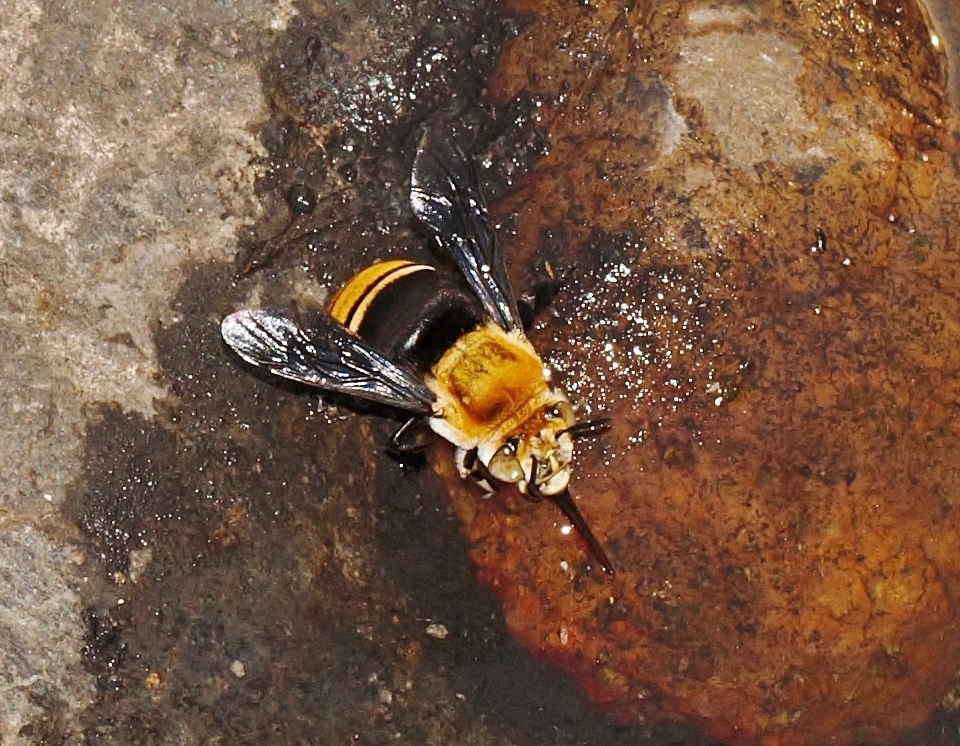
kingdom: Animalia
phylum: Arthropoda
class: Insecta
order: Hymenoptera
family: Apidae
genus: Amegilla
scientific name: Amegilla atrocincta
